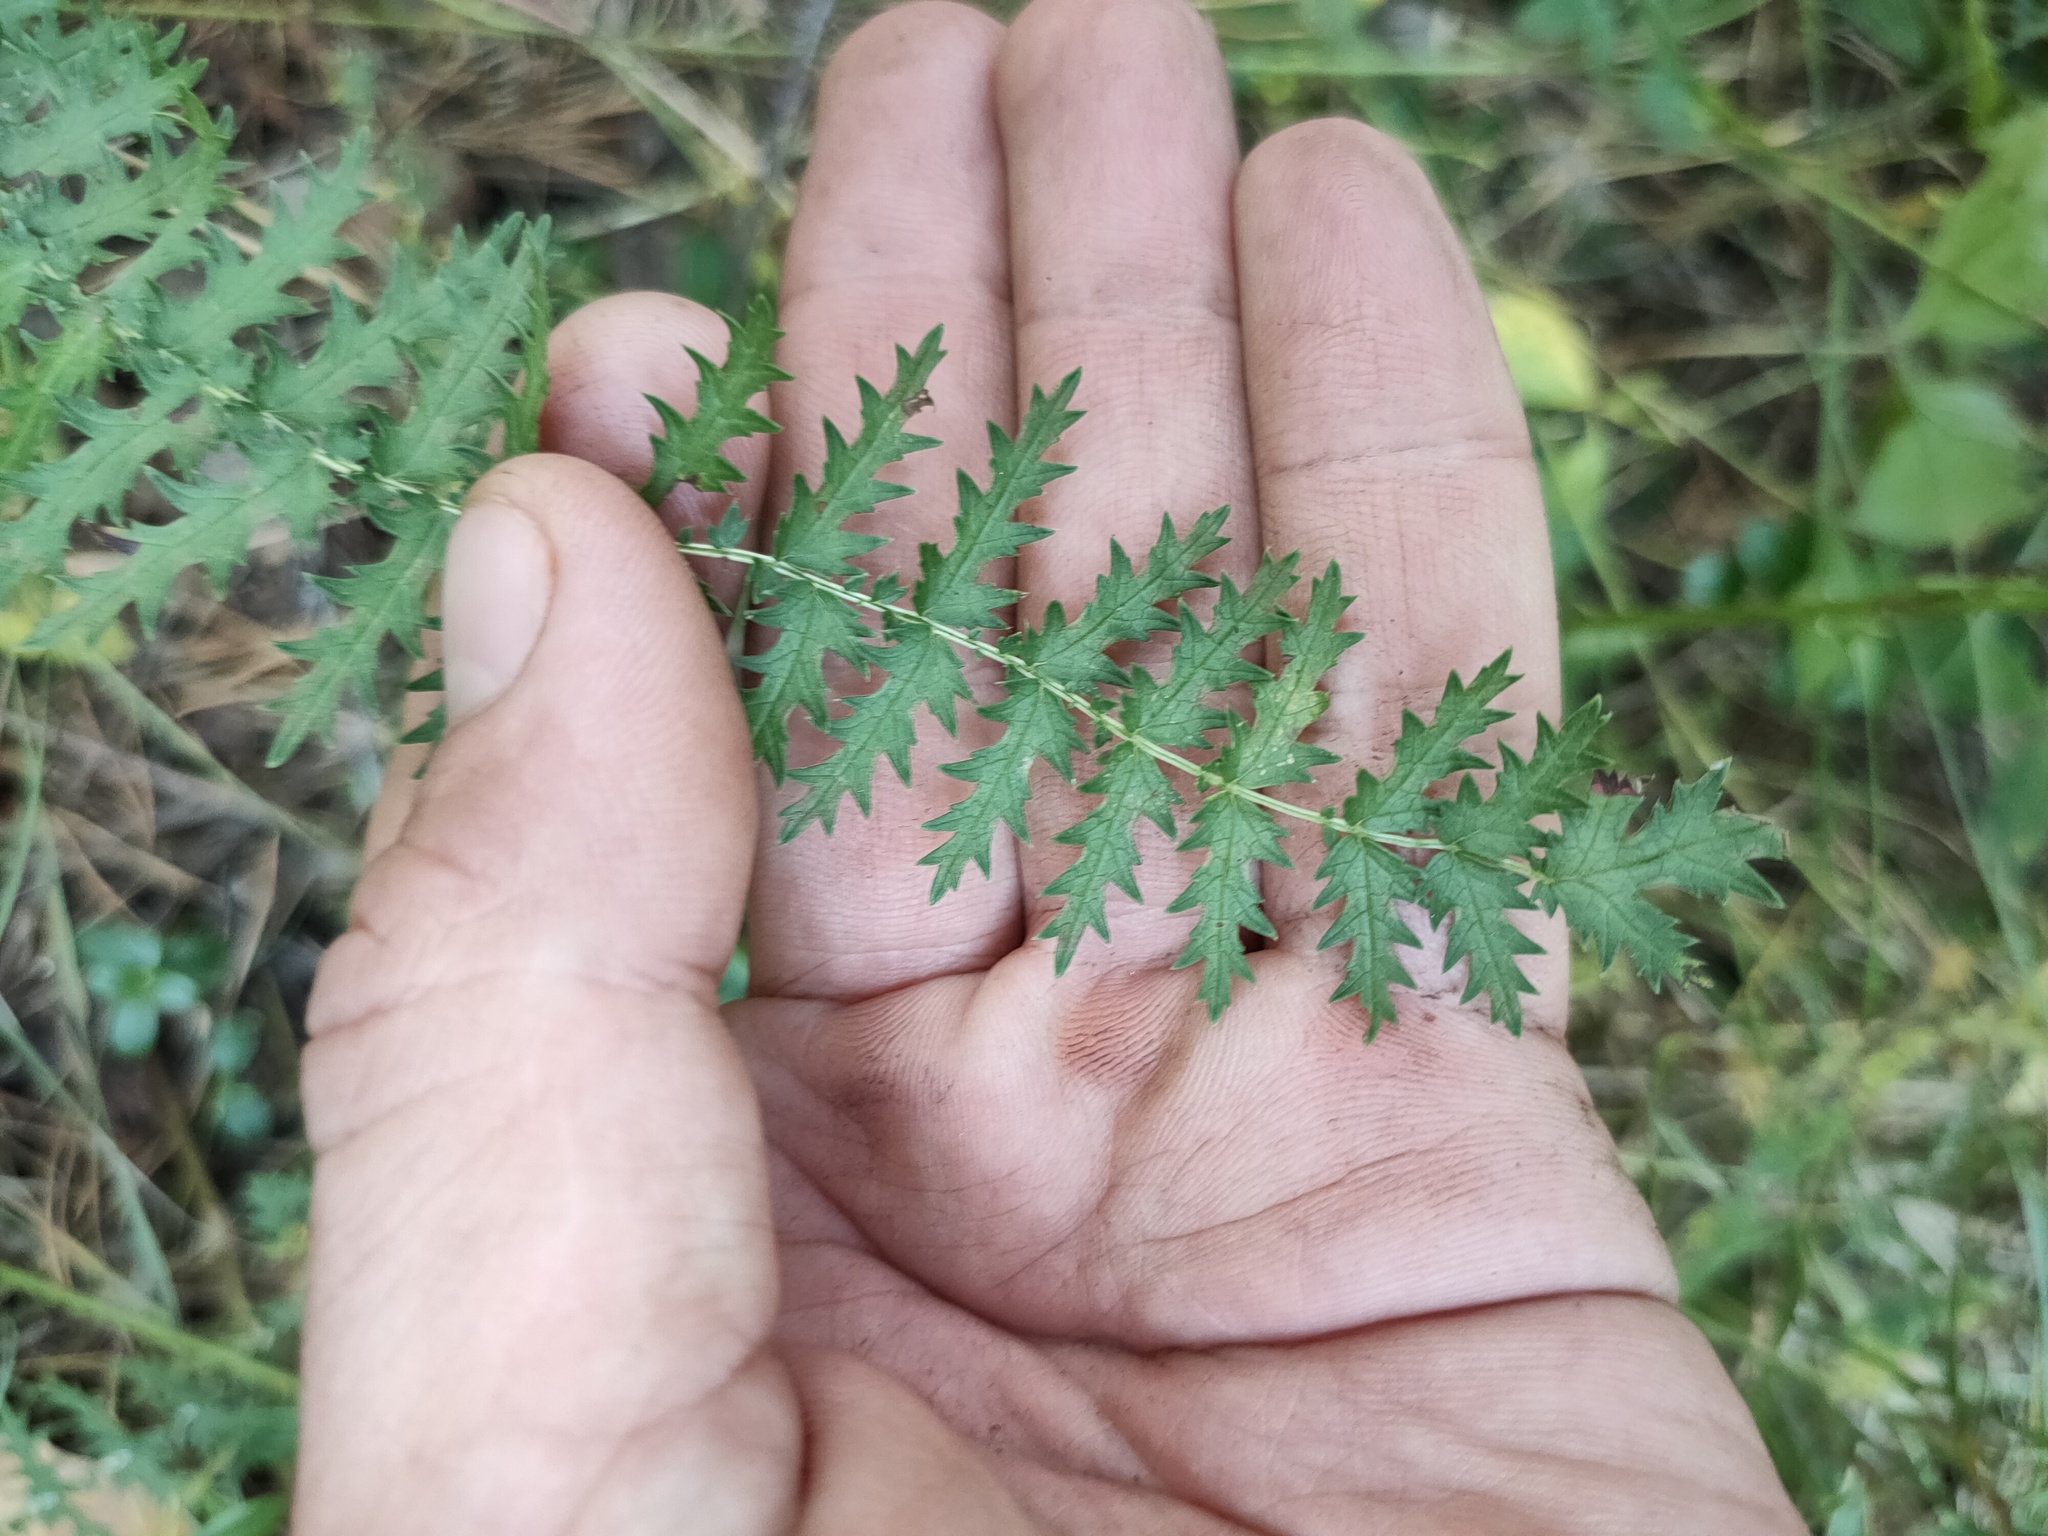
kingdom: Plantae
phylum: Tracheophyta
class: Magnoliopsida
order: Rosales
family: Rosaceae
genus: Filipendula
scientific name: Filipendula vulgaris
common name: Dropwort
